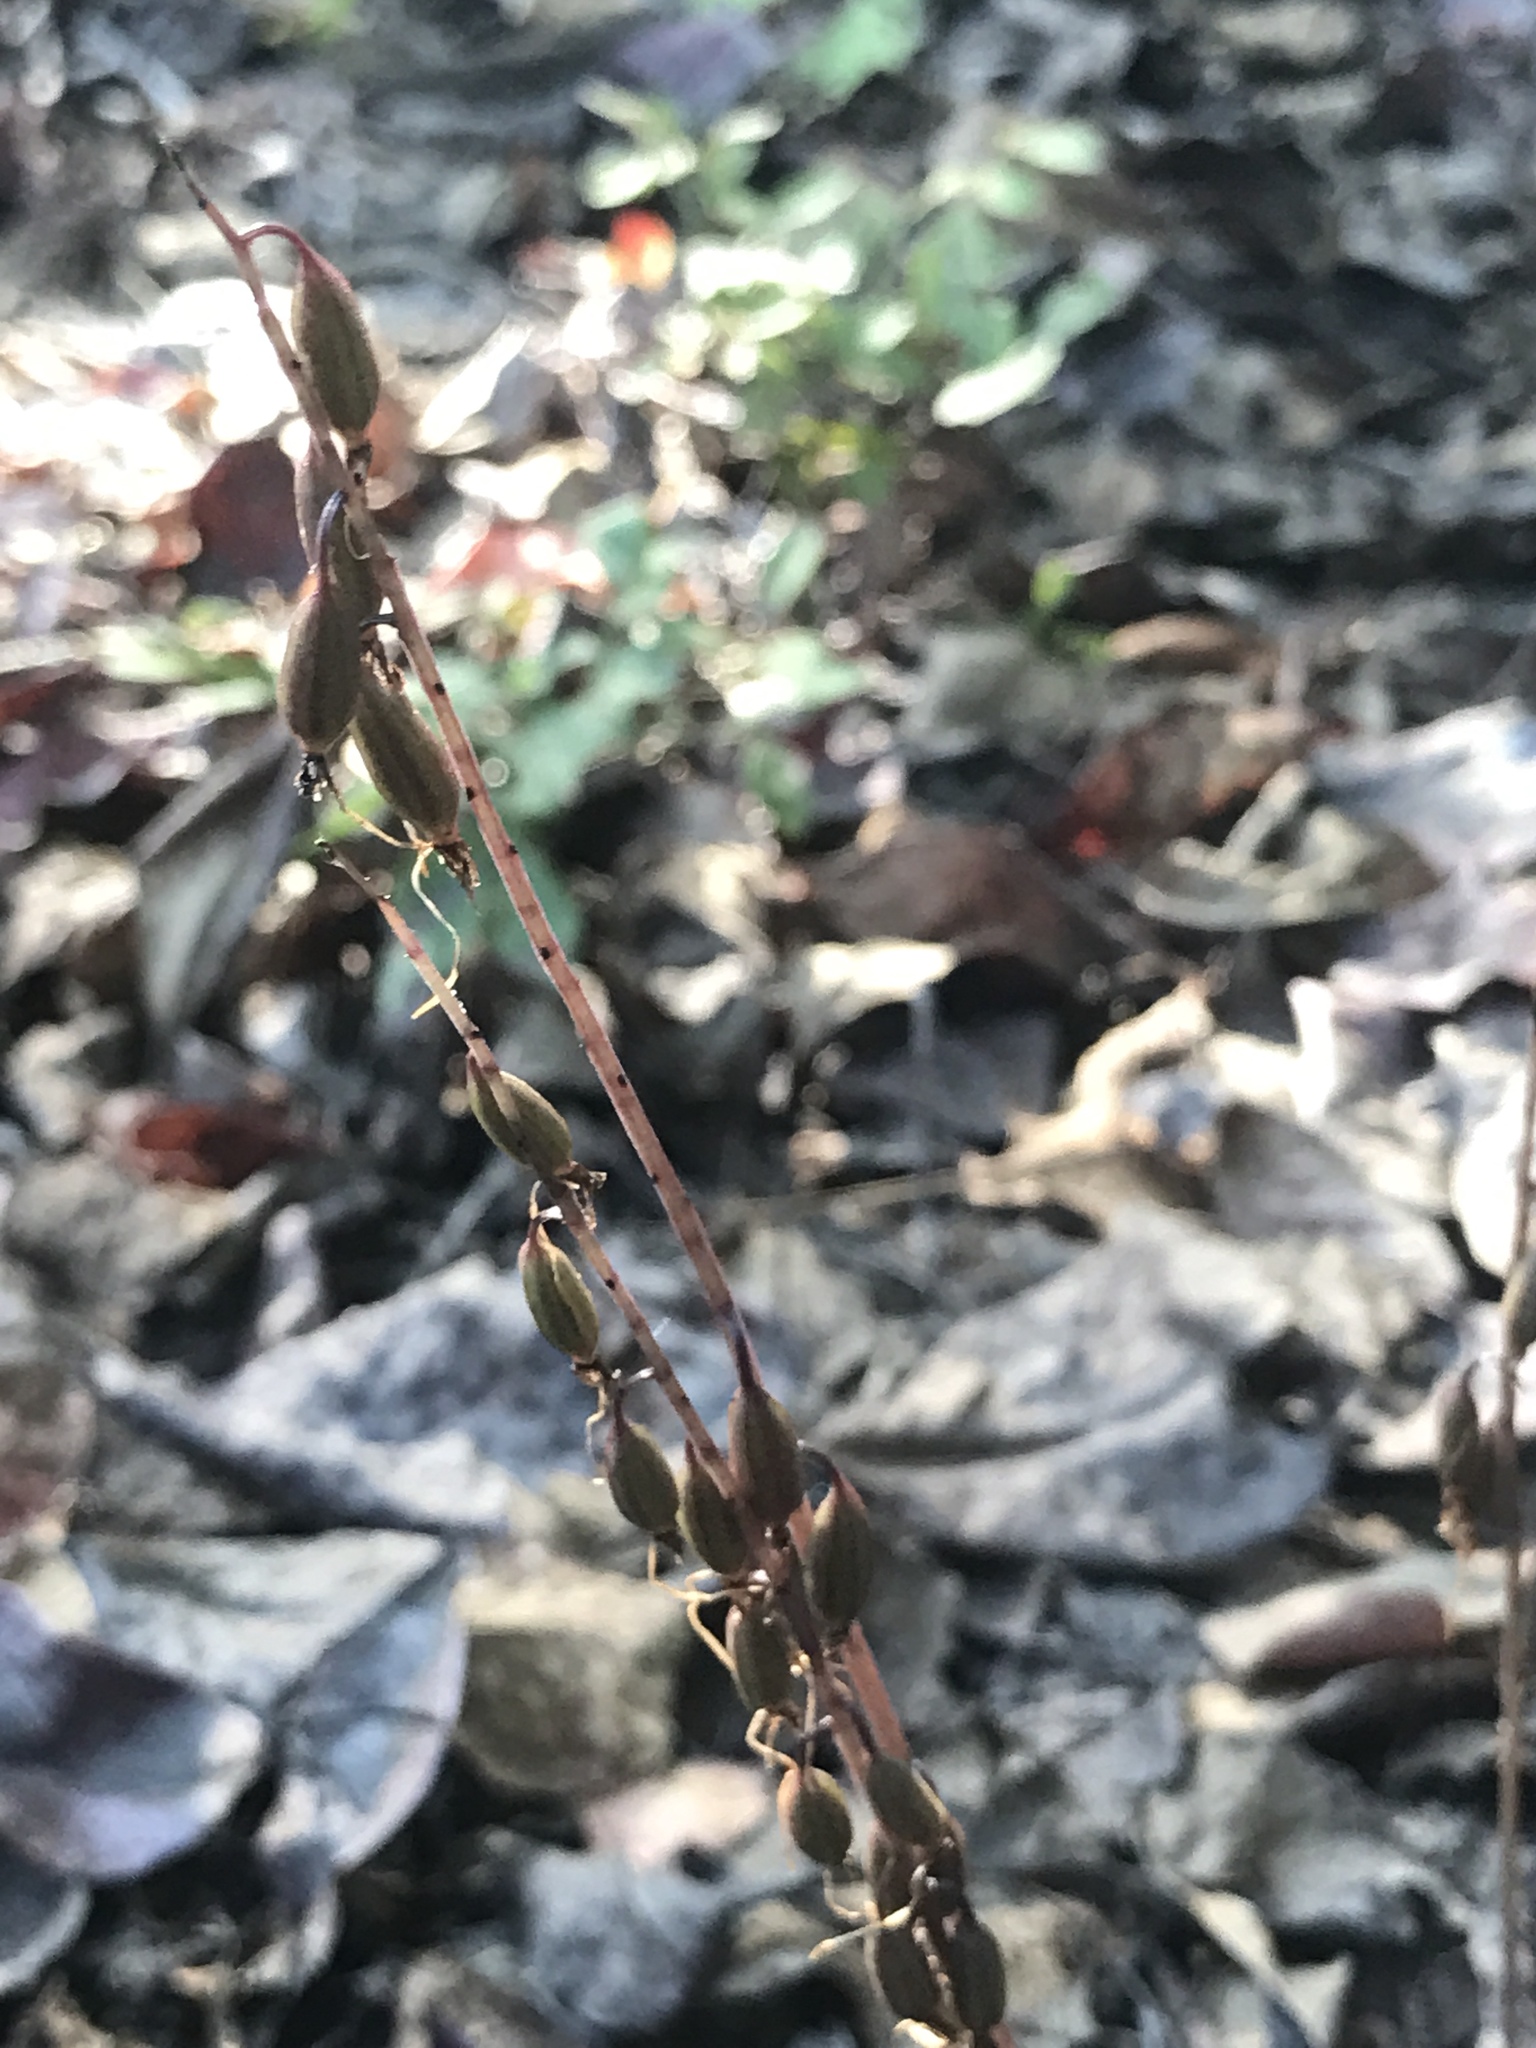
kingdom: Plantae
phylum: Tracheophyta
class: Liliopsida
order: Asparagales
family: Orchidaceae
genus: Tipularia
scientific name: Tipularia discolor
